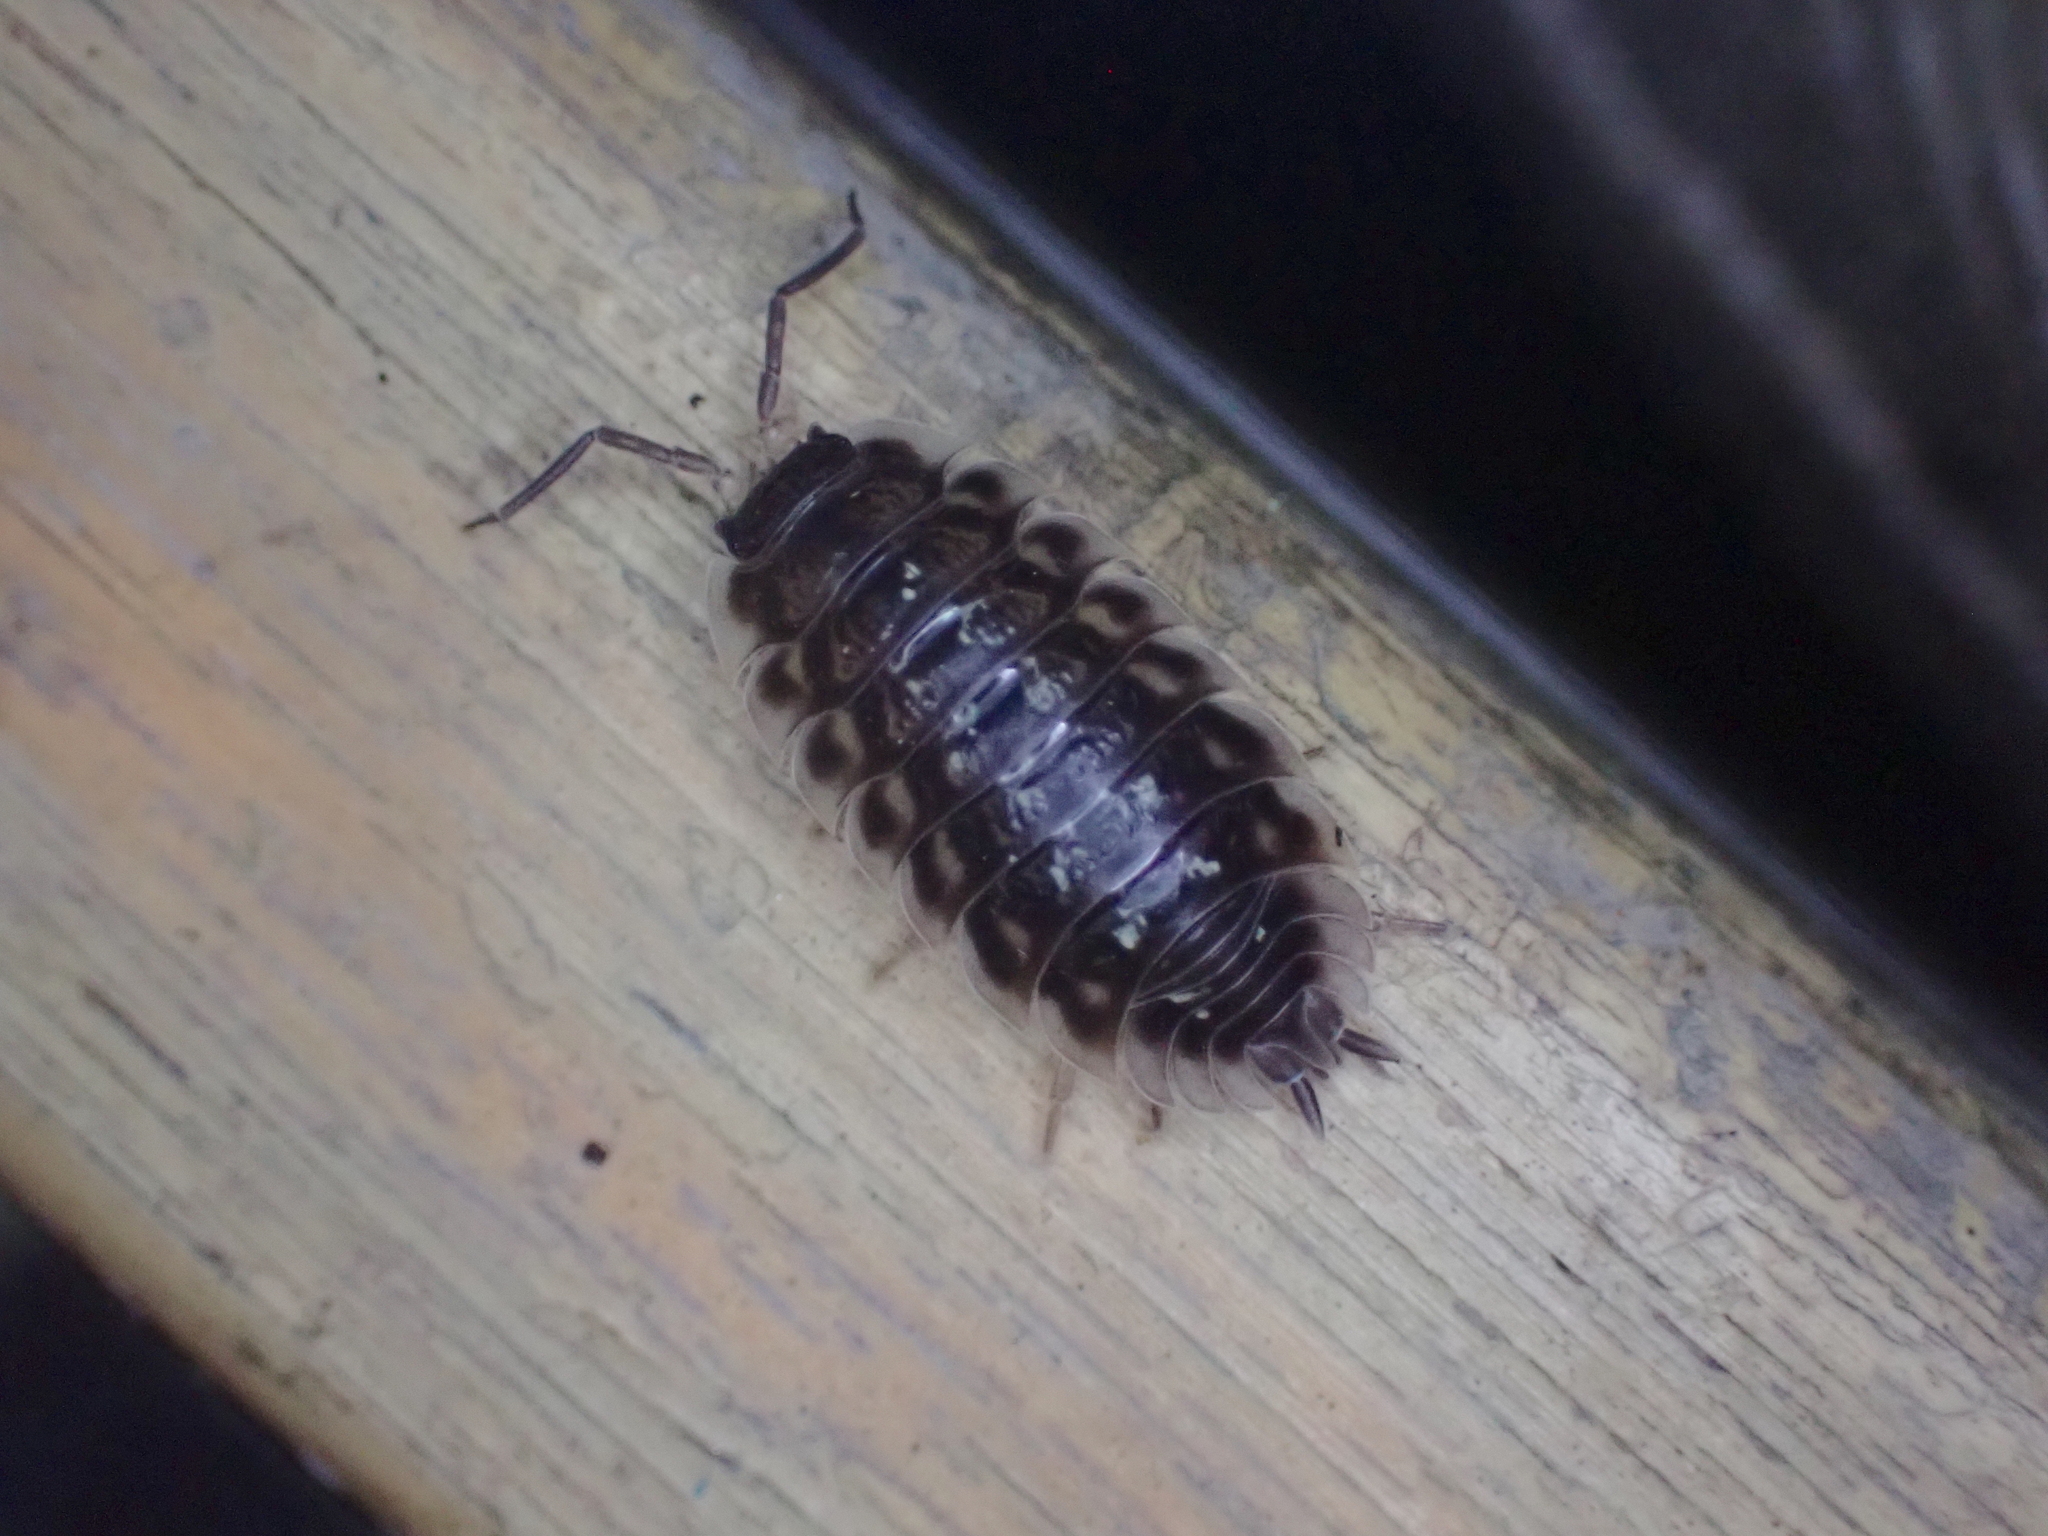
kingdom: Animalia
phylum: Arthropoda
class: Malacostraca
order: Isopoda
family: Oniscidae
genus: Oniscus
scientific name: Oniscus asellus
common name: Common shiny woodlouse
